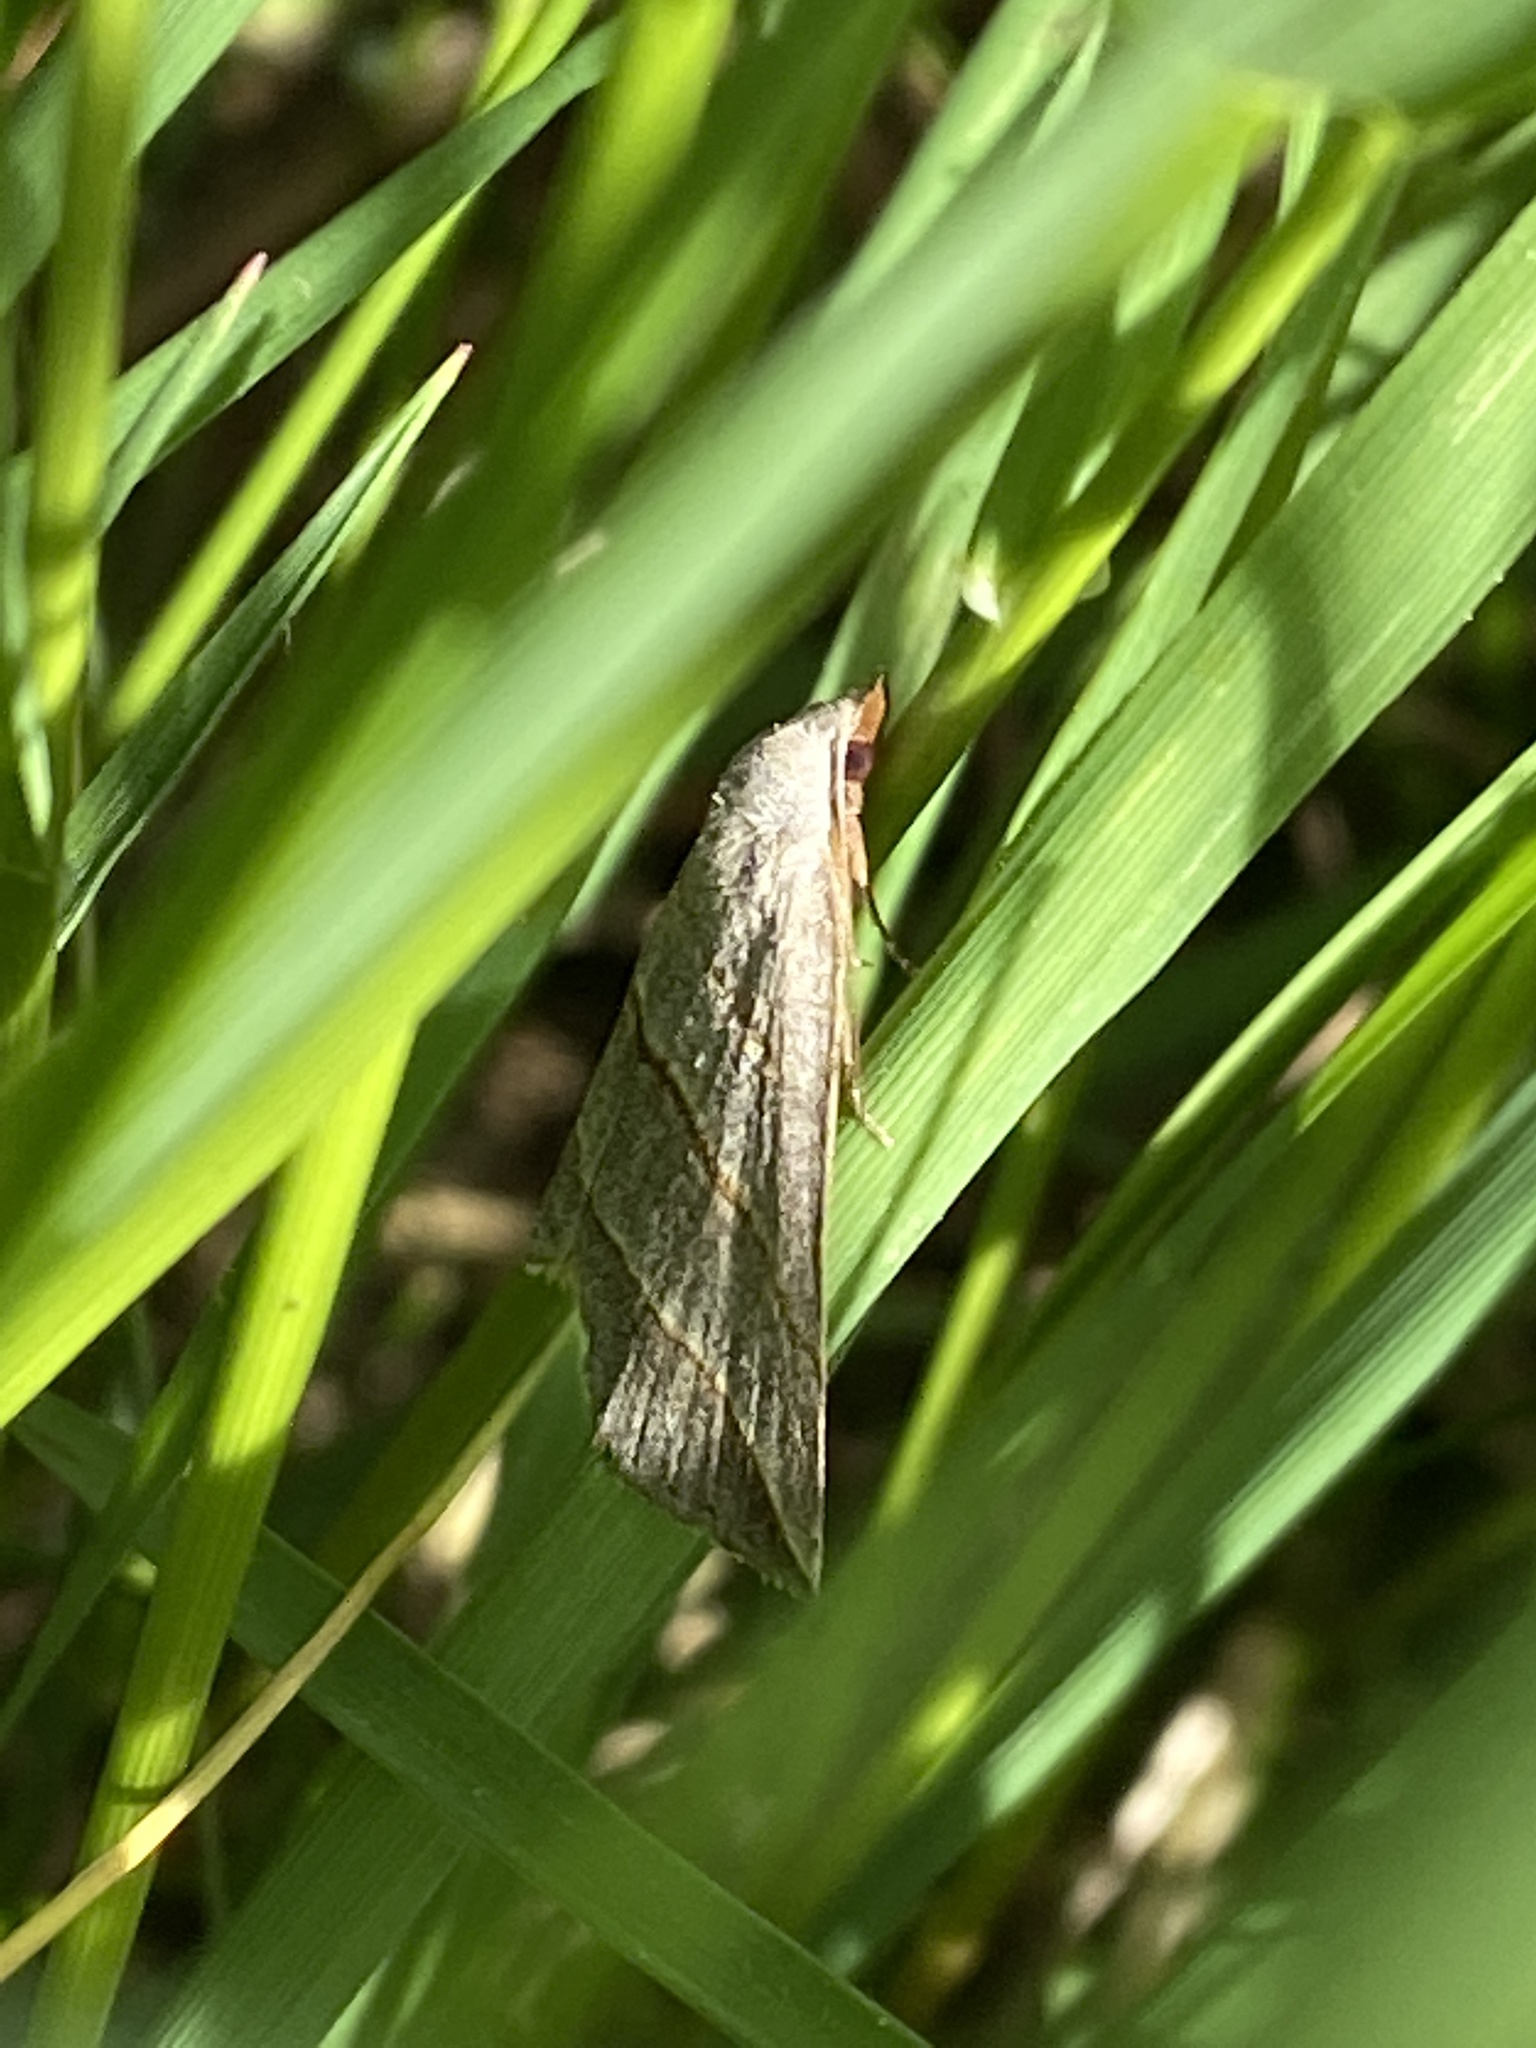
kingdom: Animalia
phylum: Arthropoda
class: Insecta
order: Lepidoptera
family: Erebidae
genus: Colobochyla
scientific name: Colobochyla salicalis
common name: Lesser belle
